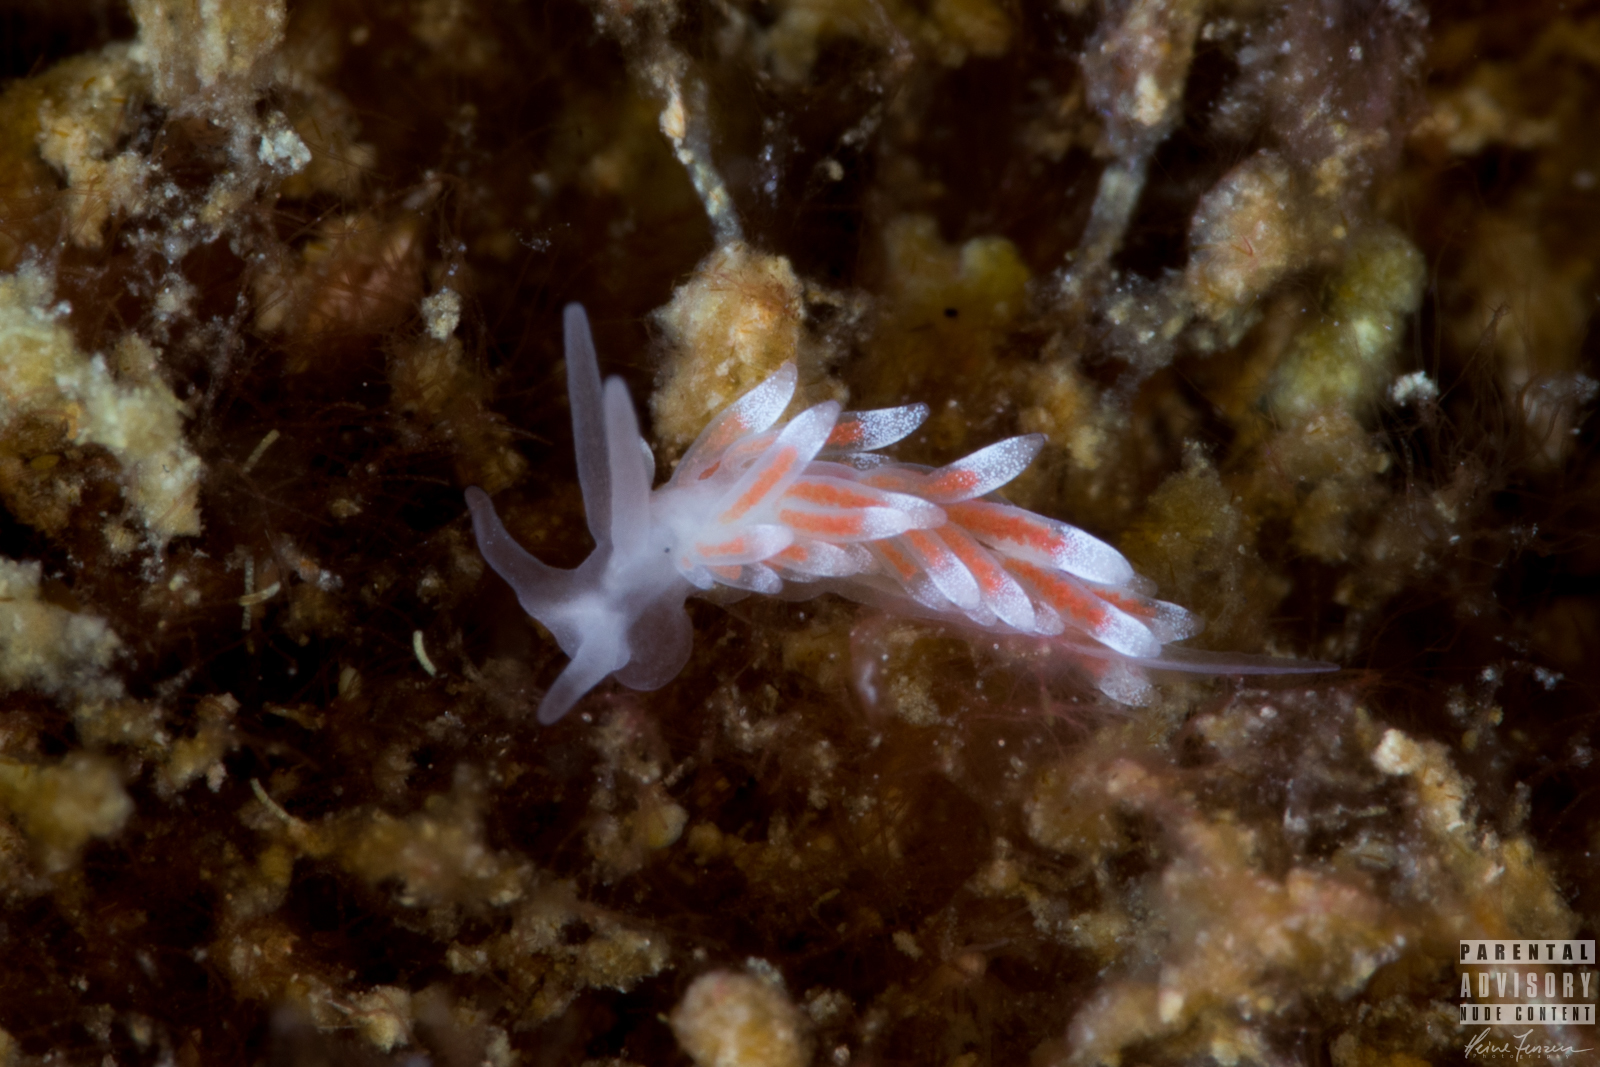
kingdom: Animalia
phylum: Mollusca
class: Gastropoda
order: Nudibranchia
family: Trinchesiidae
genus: Catriona
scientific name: Catriona aurantia
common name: Corange-tip cuthona
